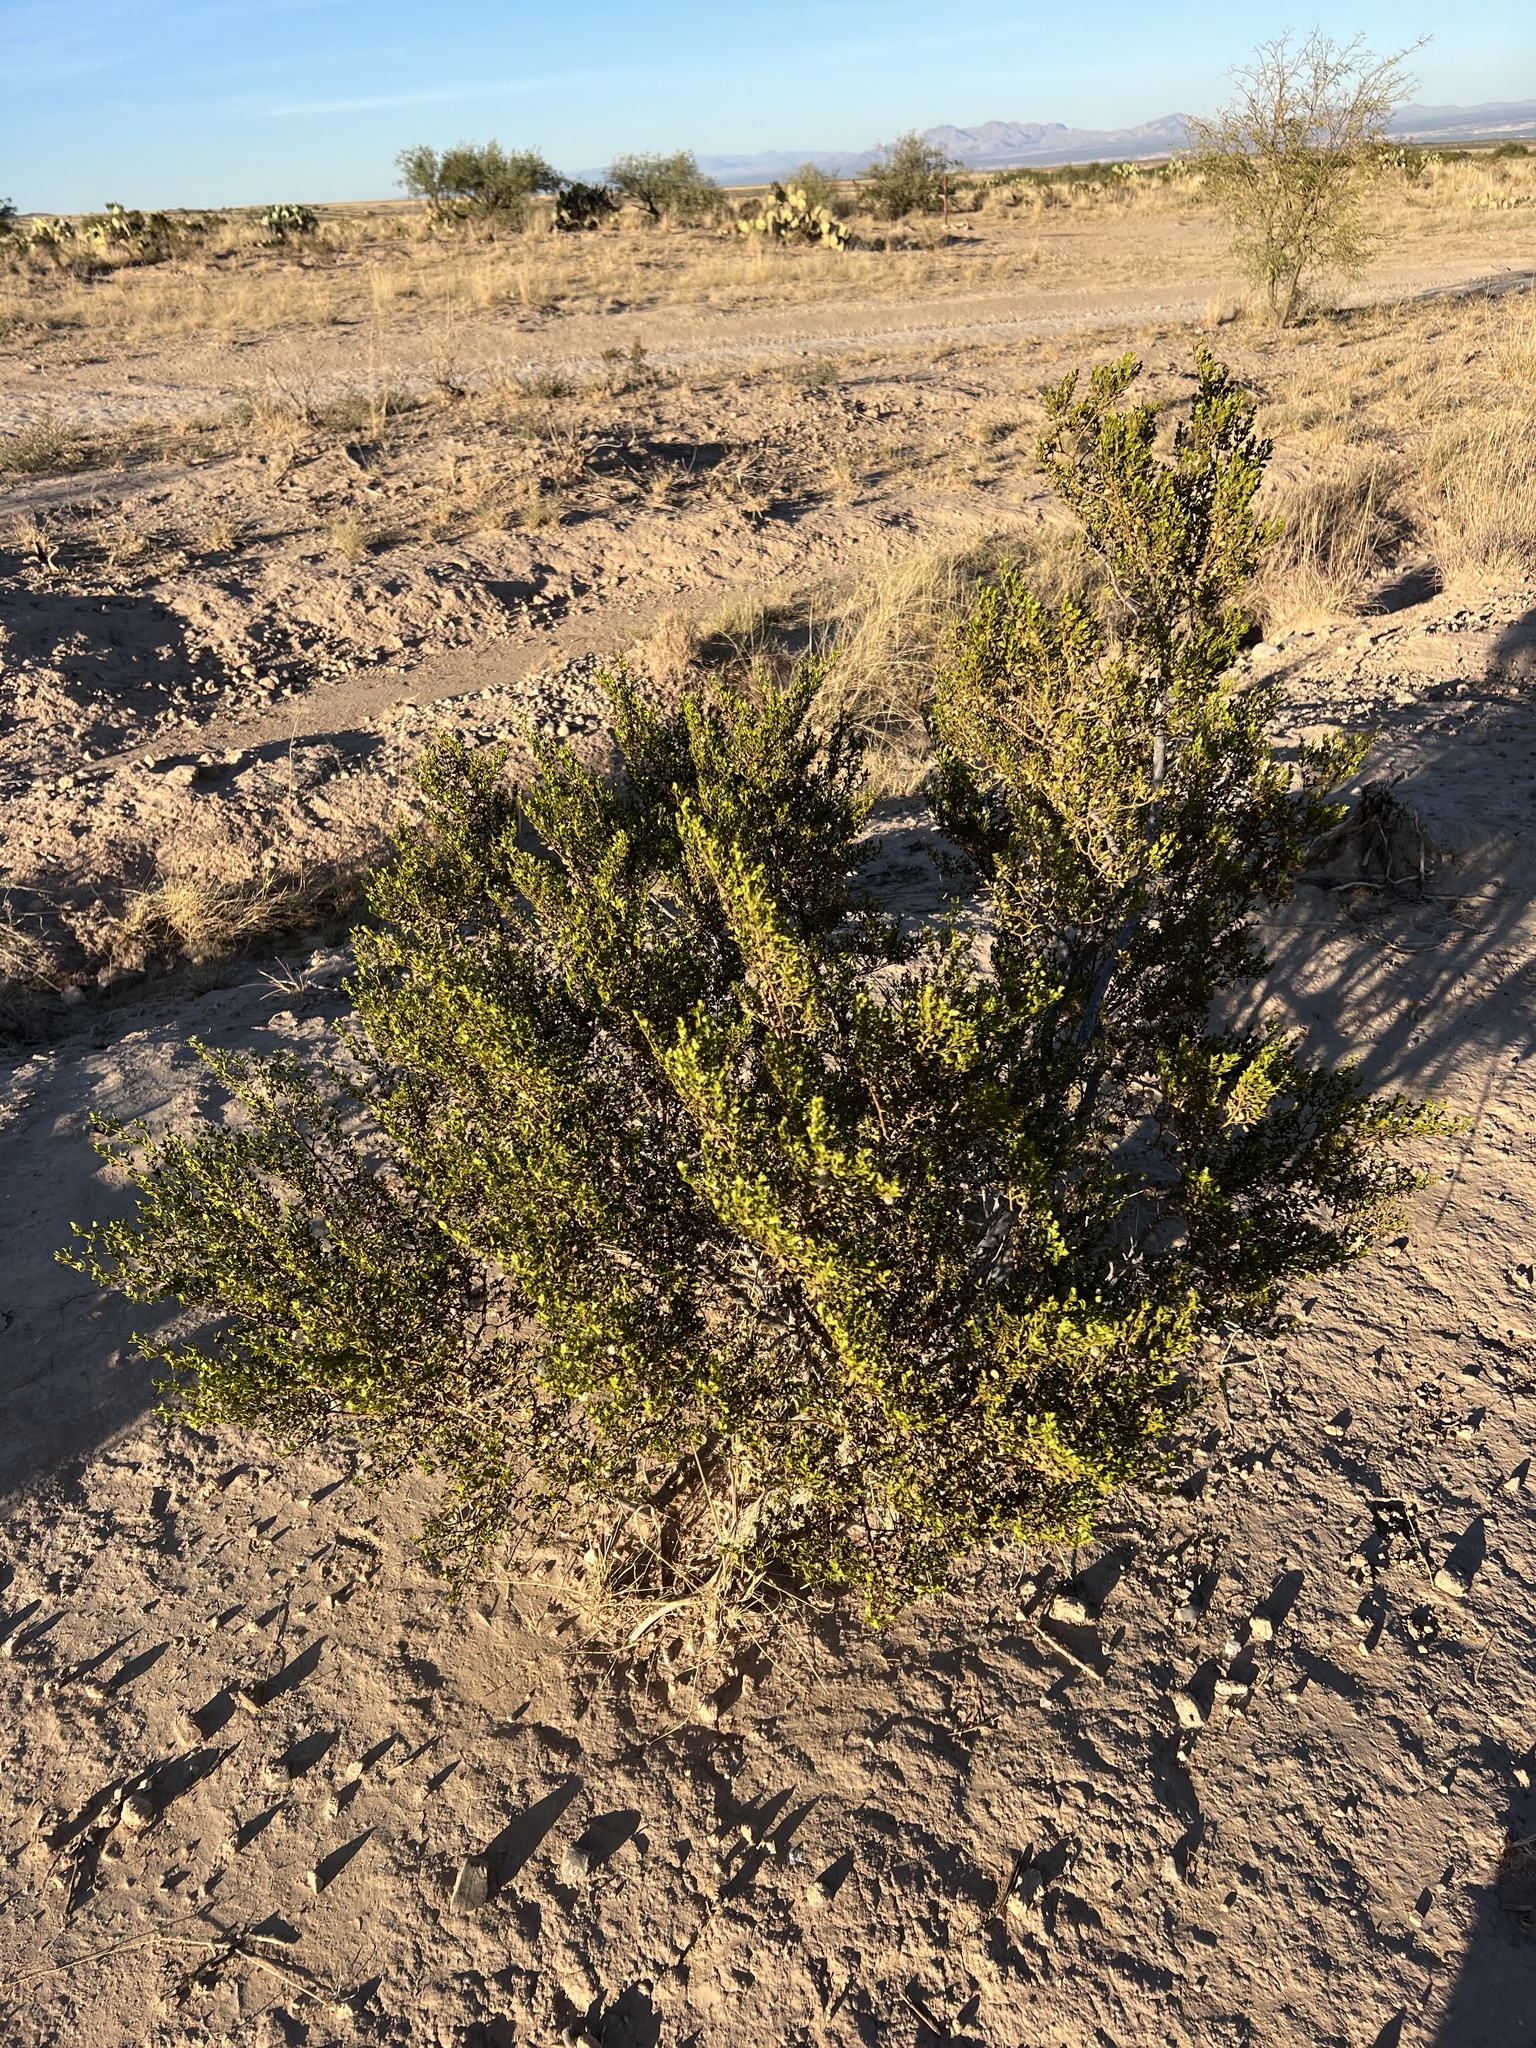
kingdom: Plantae
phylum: Tracheophyta
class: Magnoliopsida
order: Zygophyllales
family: Zygophyllaceae
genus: Larrea
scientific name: Larrea tridentata
